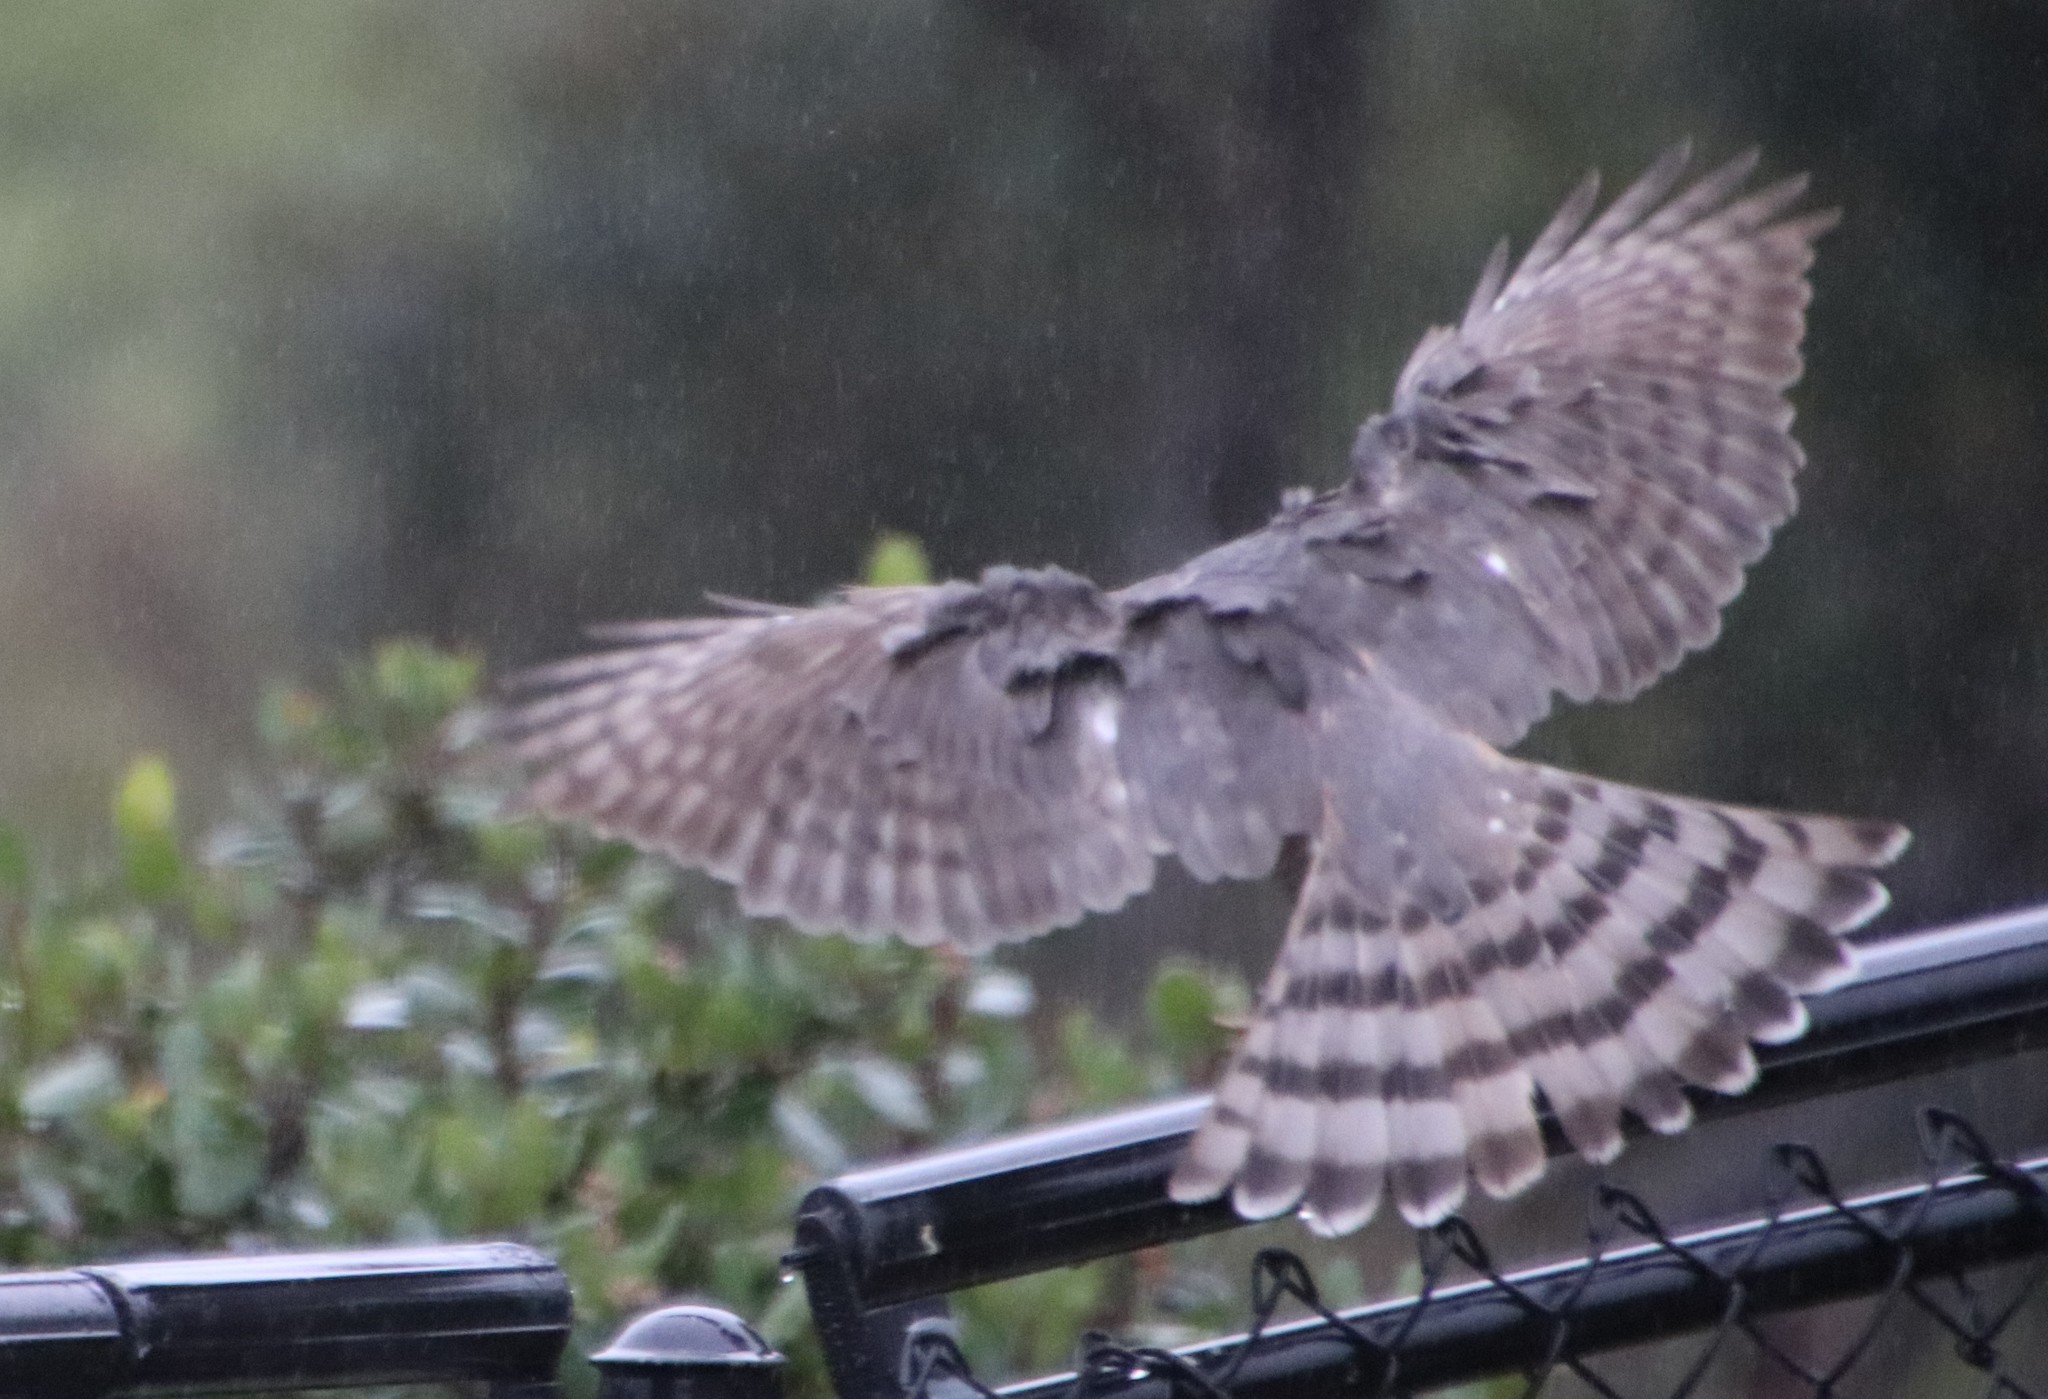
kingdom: Animalia
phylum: Chordata
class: Aves
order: Accipitriformes
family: Accipitridae
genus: Accipiter
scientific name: Accipiter striatus
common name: Sharp-shinned hawk
